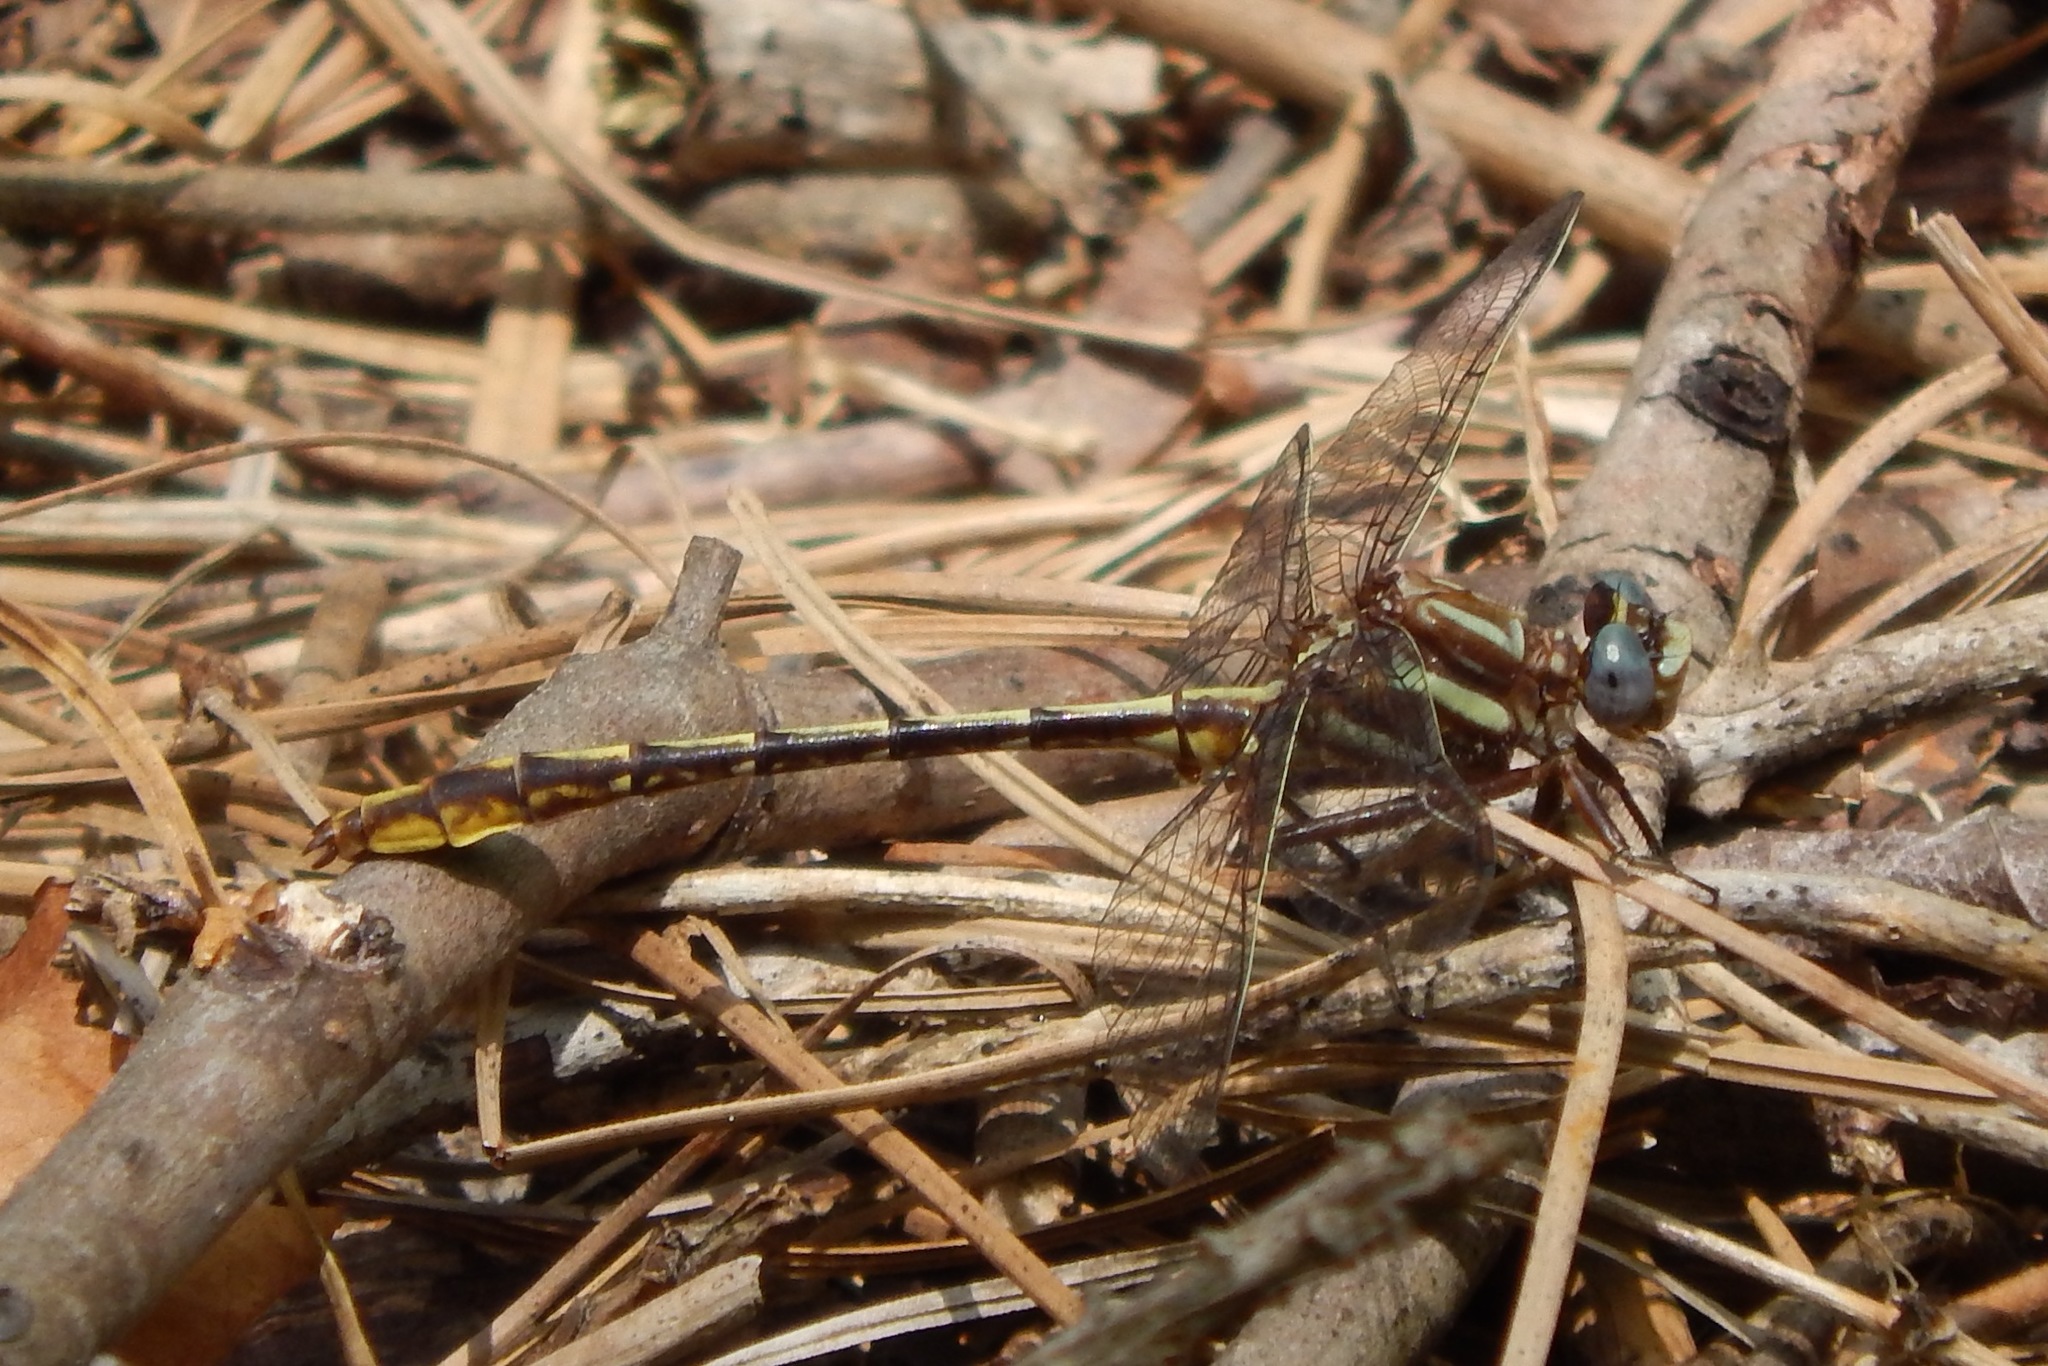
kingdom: Animalia
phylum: Arthropoda
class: Insecta
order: Odonata
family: Gomphidae
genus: Phanogomphus
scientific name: Phanogomphus exilis
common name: Lancet clubtail
